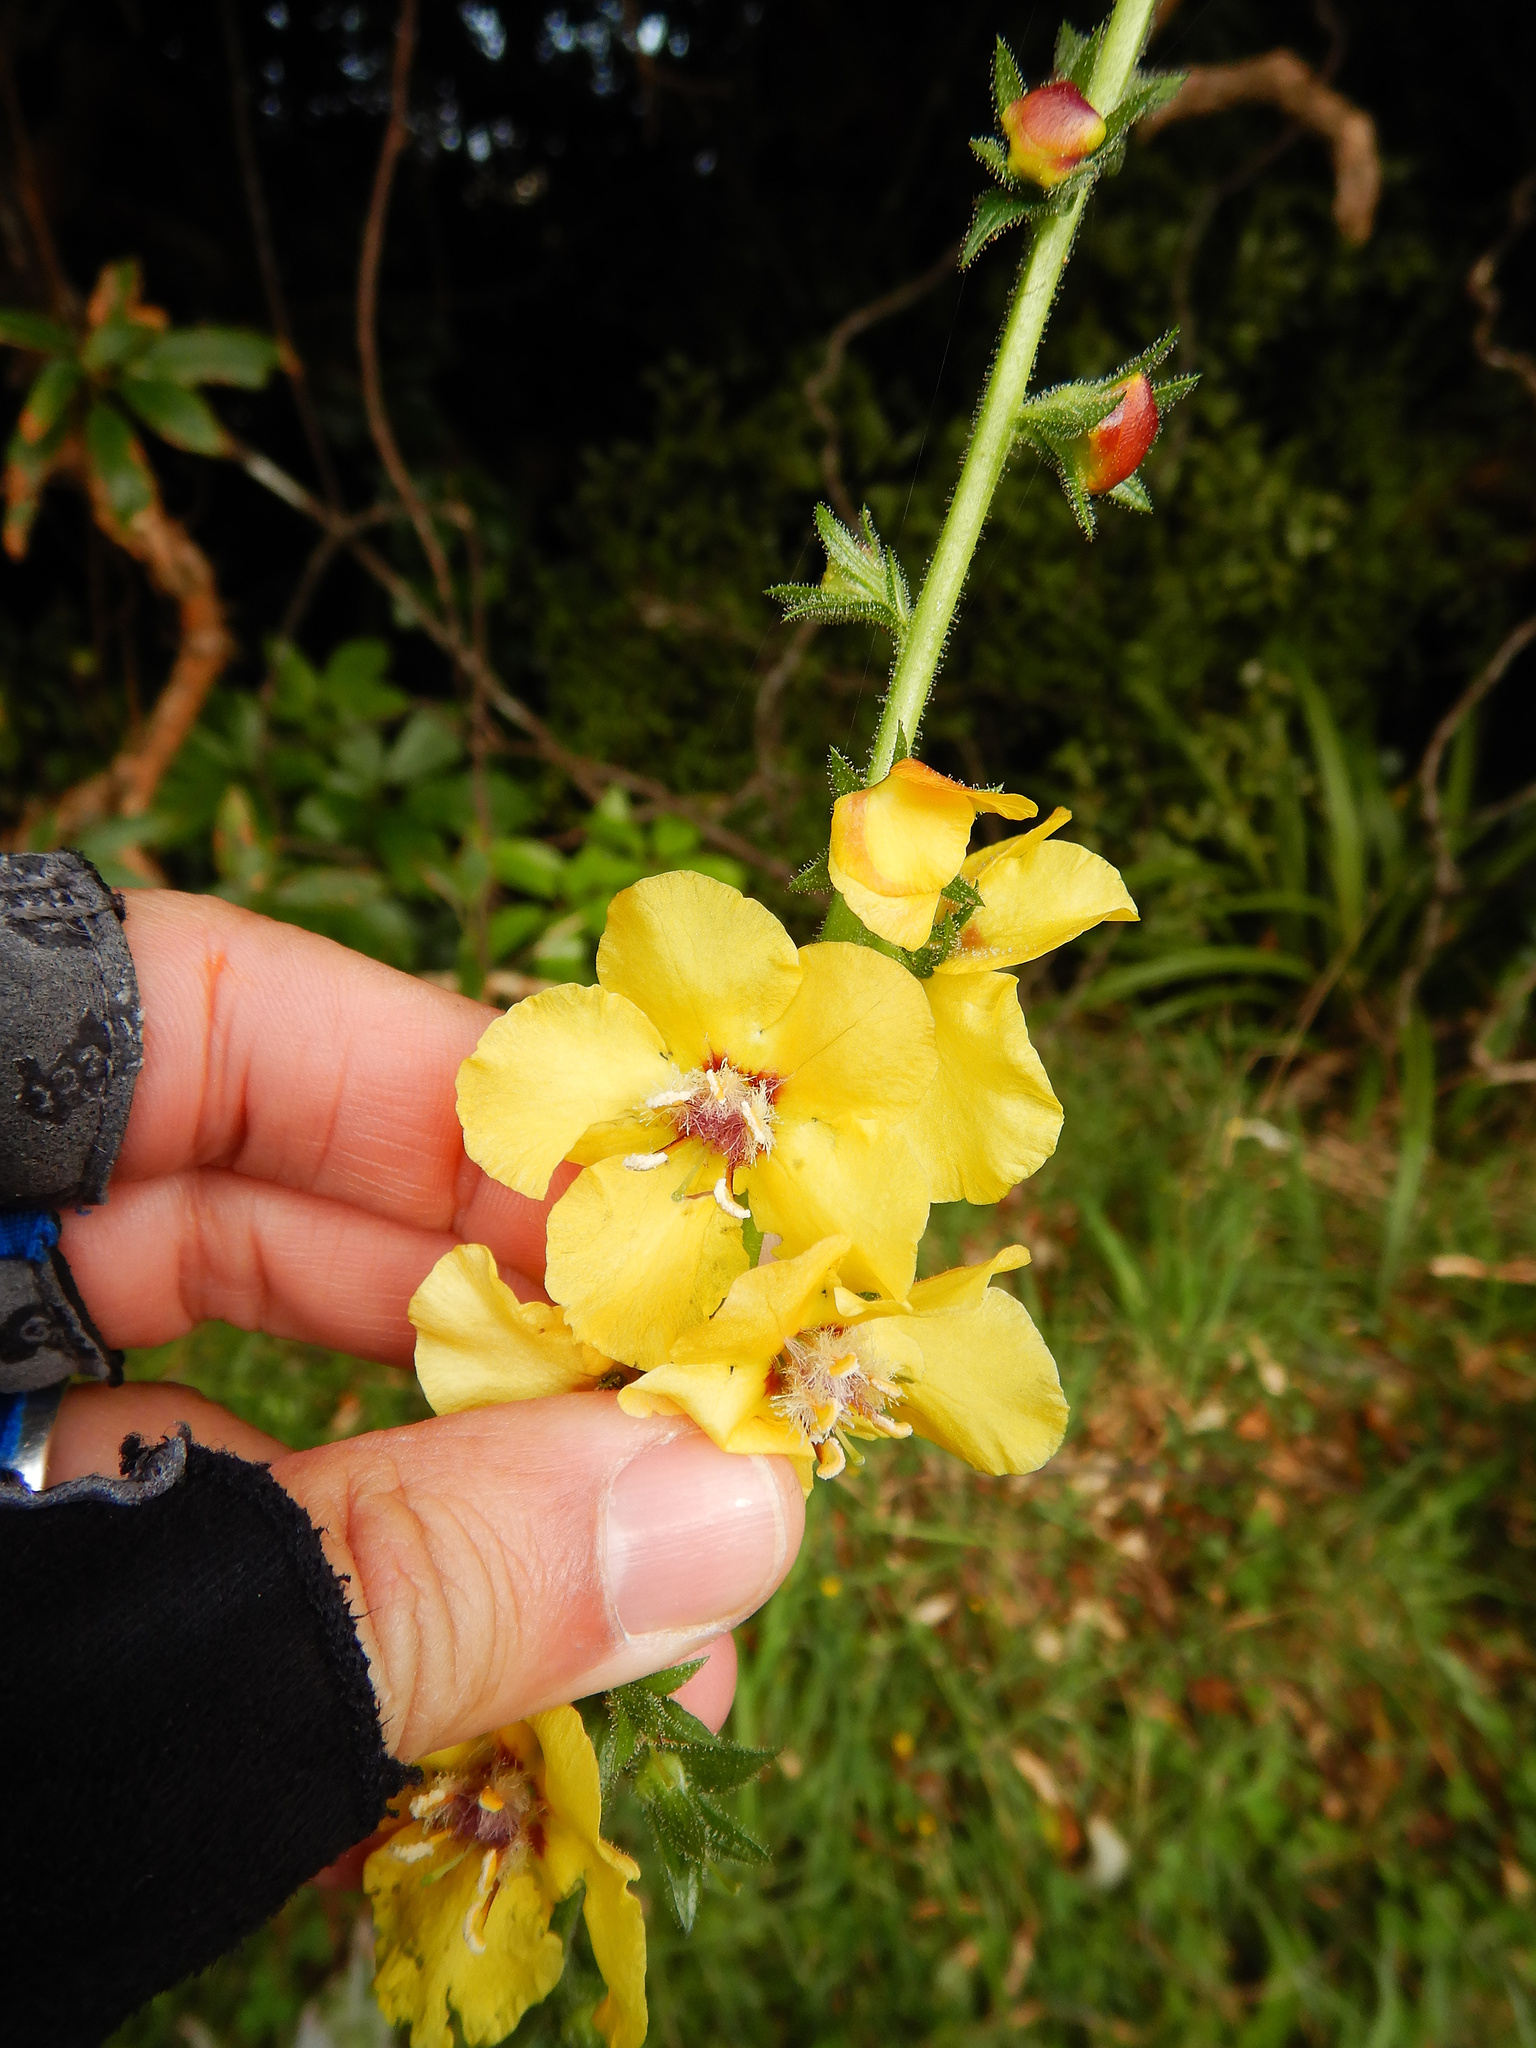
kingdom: Plantae
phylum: Tracheophyta
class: Magnoliopsida
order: Lamiales
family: Scrophulariaceae
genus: Verbascum
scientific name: Verbascum virgatum
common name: Twiggy mullein
